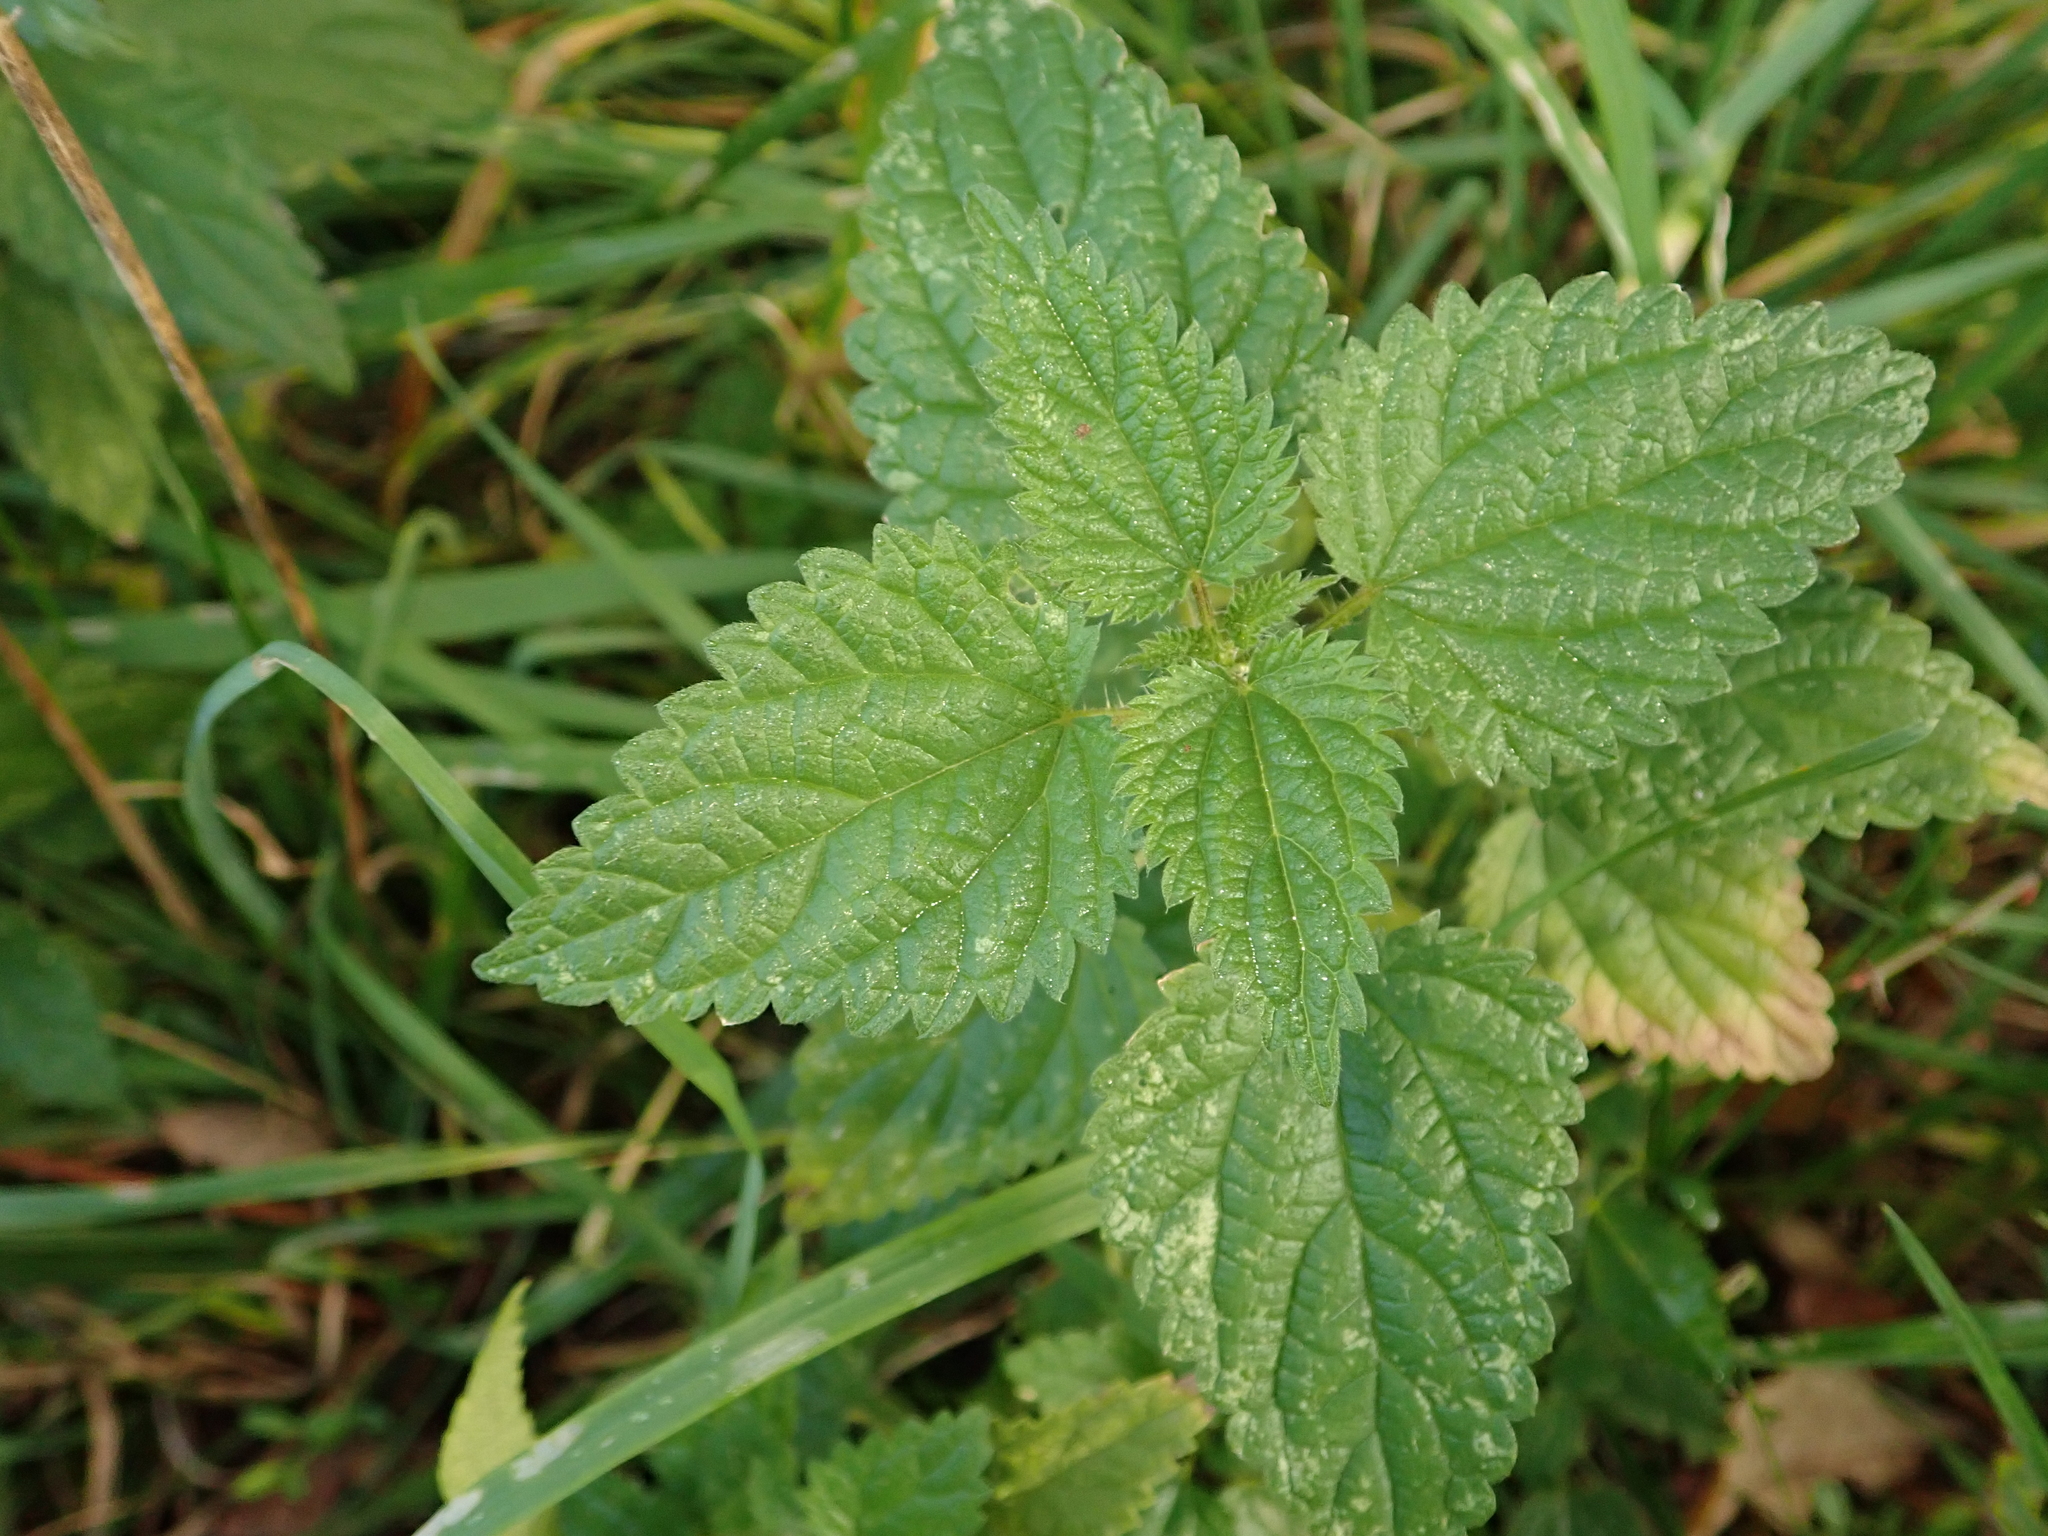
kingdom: Plantae
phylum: Tracheophyta
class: Magnoliopsida
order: Rosales
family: Urticaceae
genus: Urtica
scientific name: Urtica dioica
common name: Common nettle
